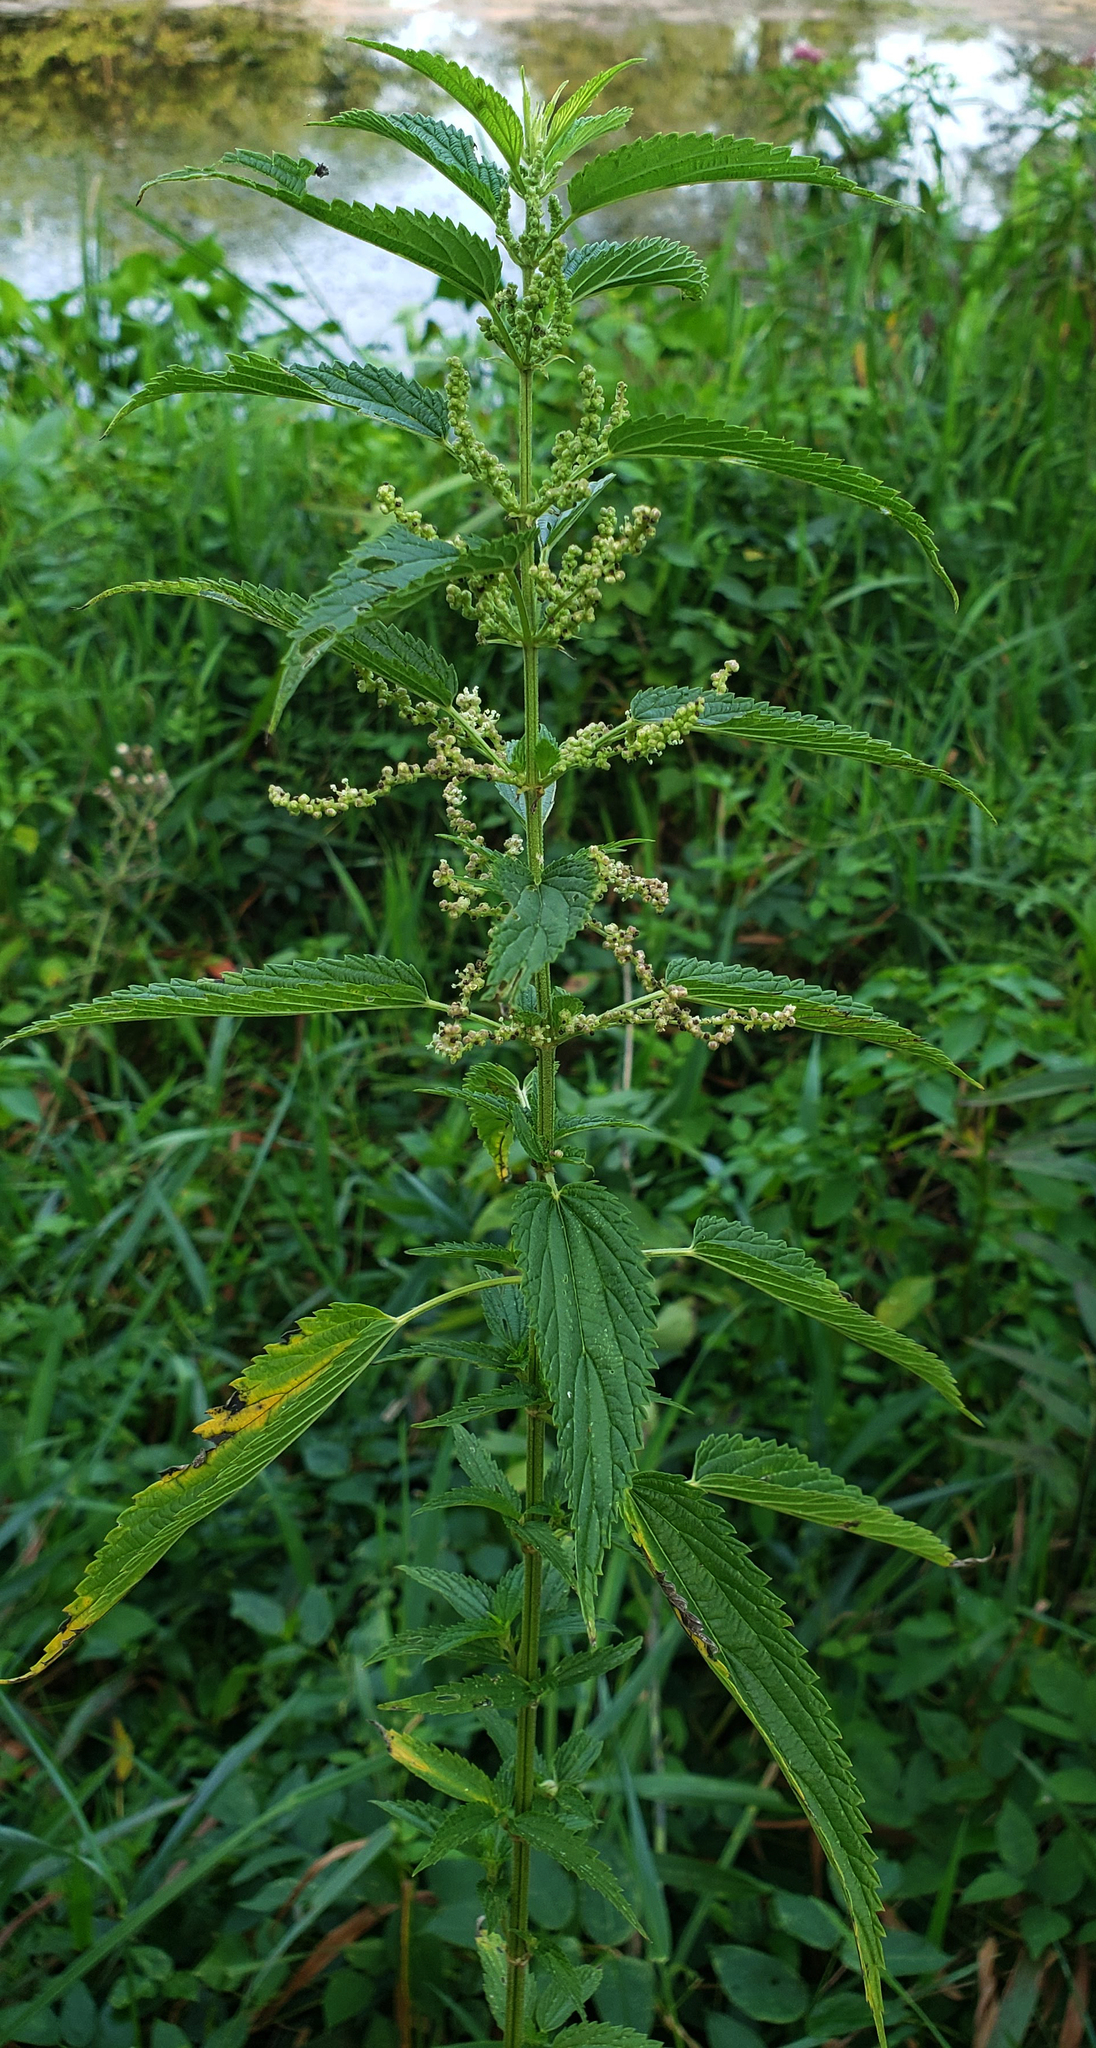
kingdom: Plantae
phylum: Tracheophyta
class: Magnoliopsida
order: Rosales
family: Urticaceae
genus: Urtica
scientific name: Urtica dioica
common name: Common nettle
